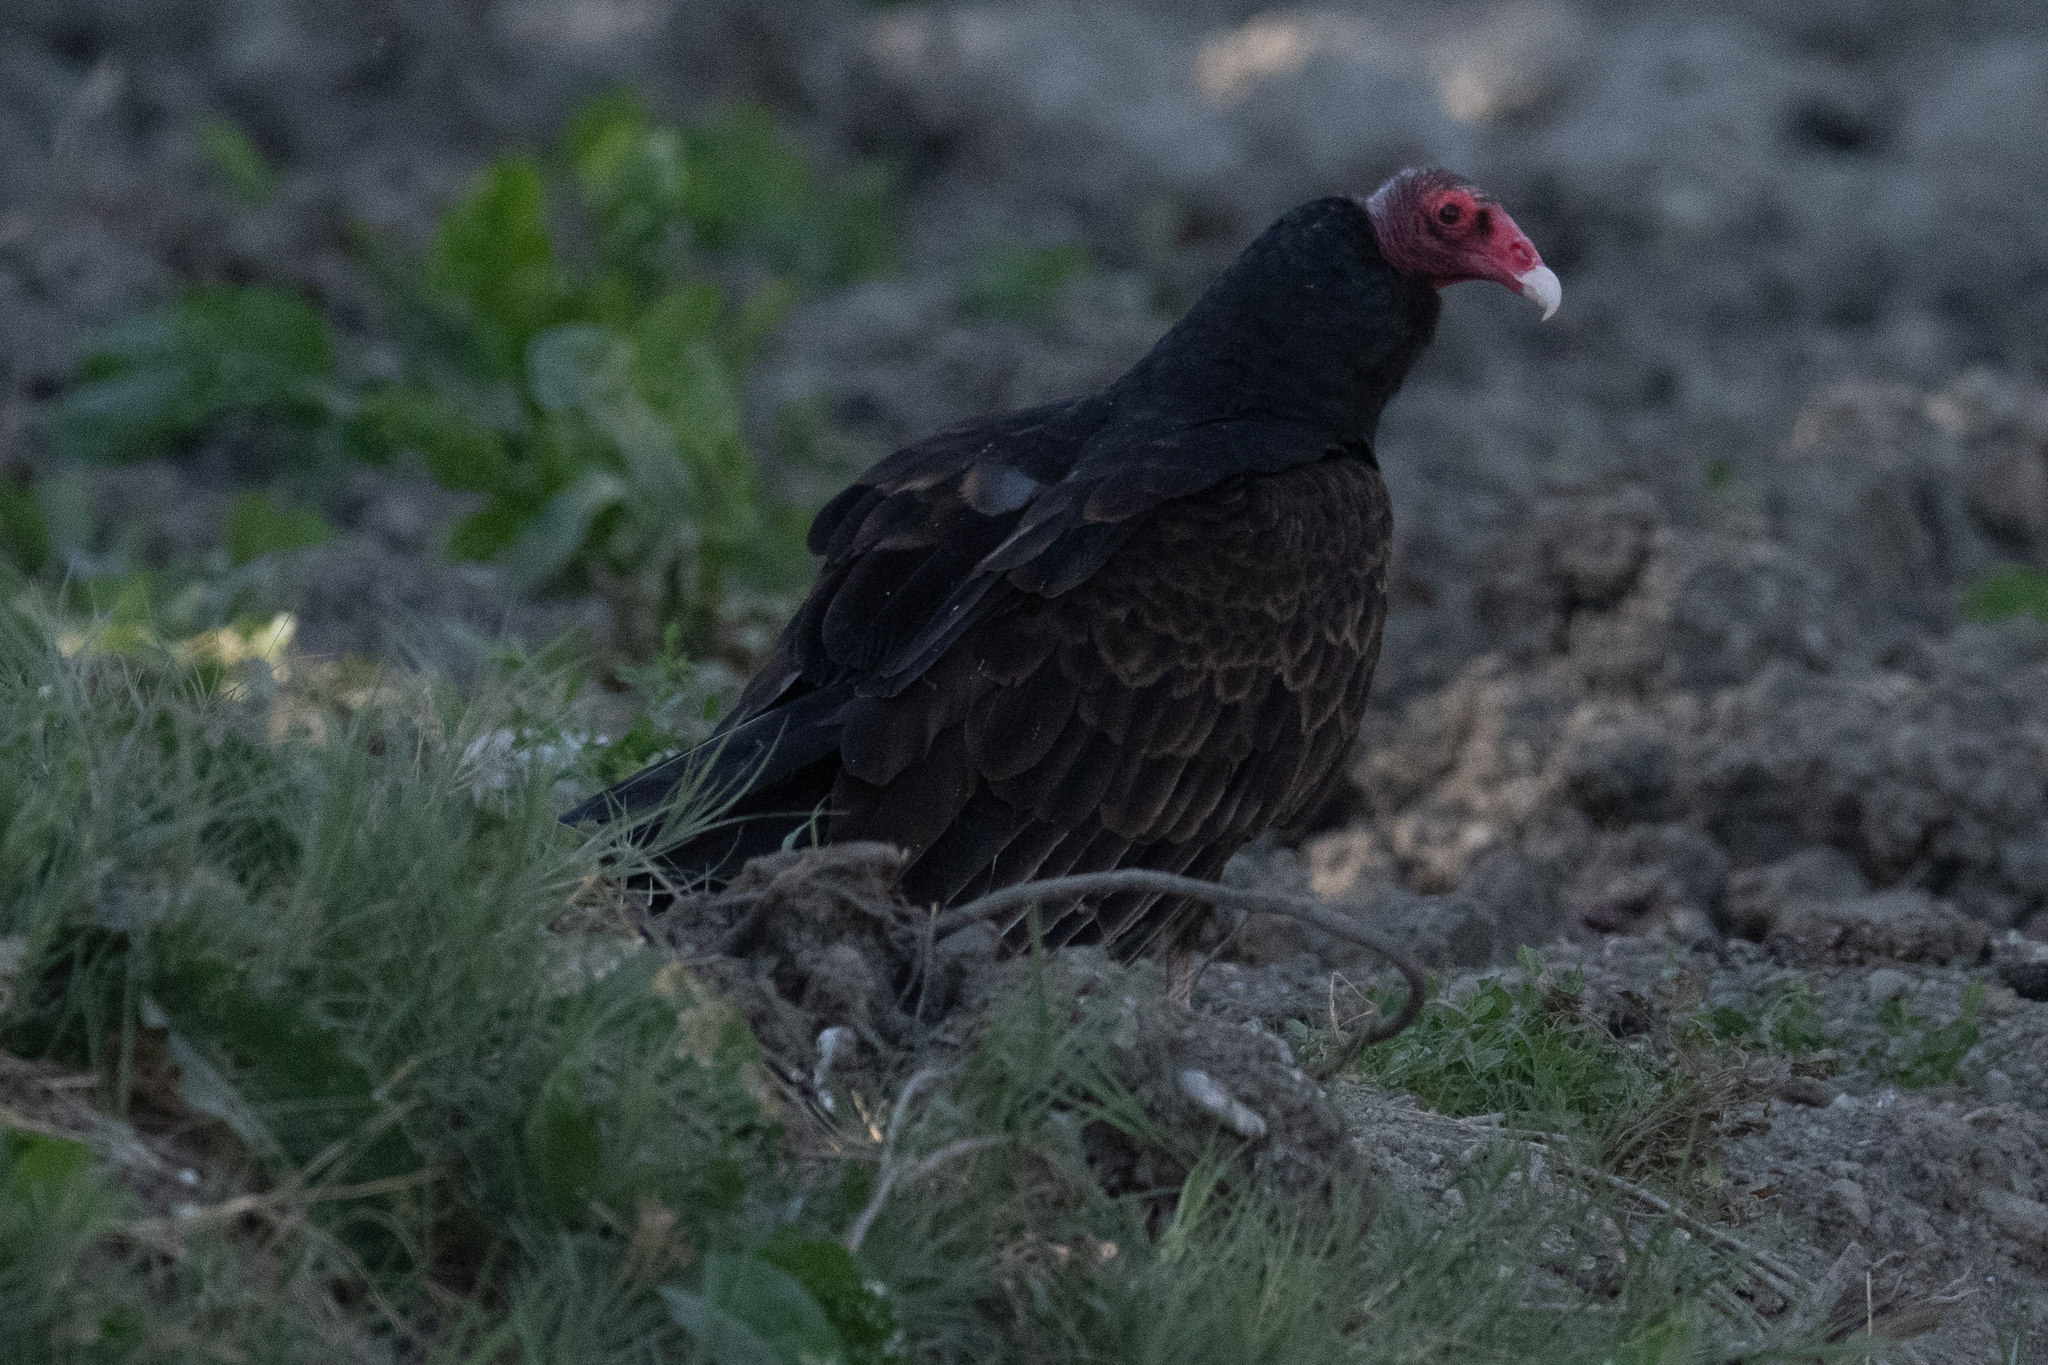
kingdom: Animalia
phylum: Chordata
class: Aves
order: Accipitriformes
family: Cathartidae
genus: Cathartes
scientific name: Cathartes aura
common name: Turkey vulture
